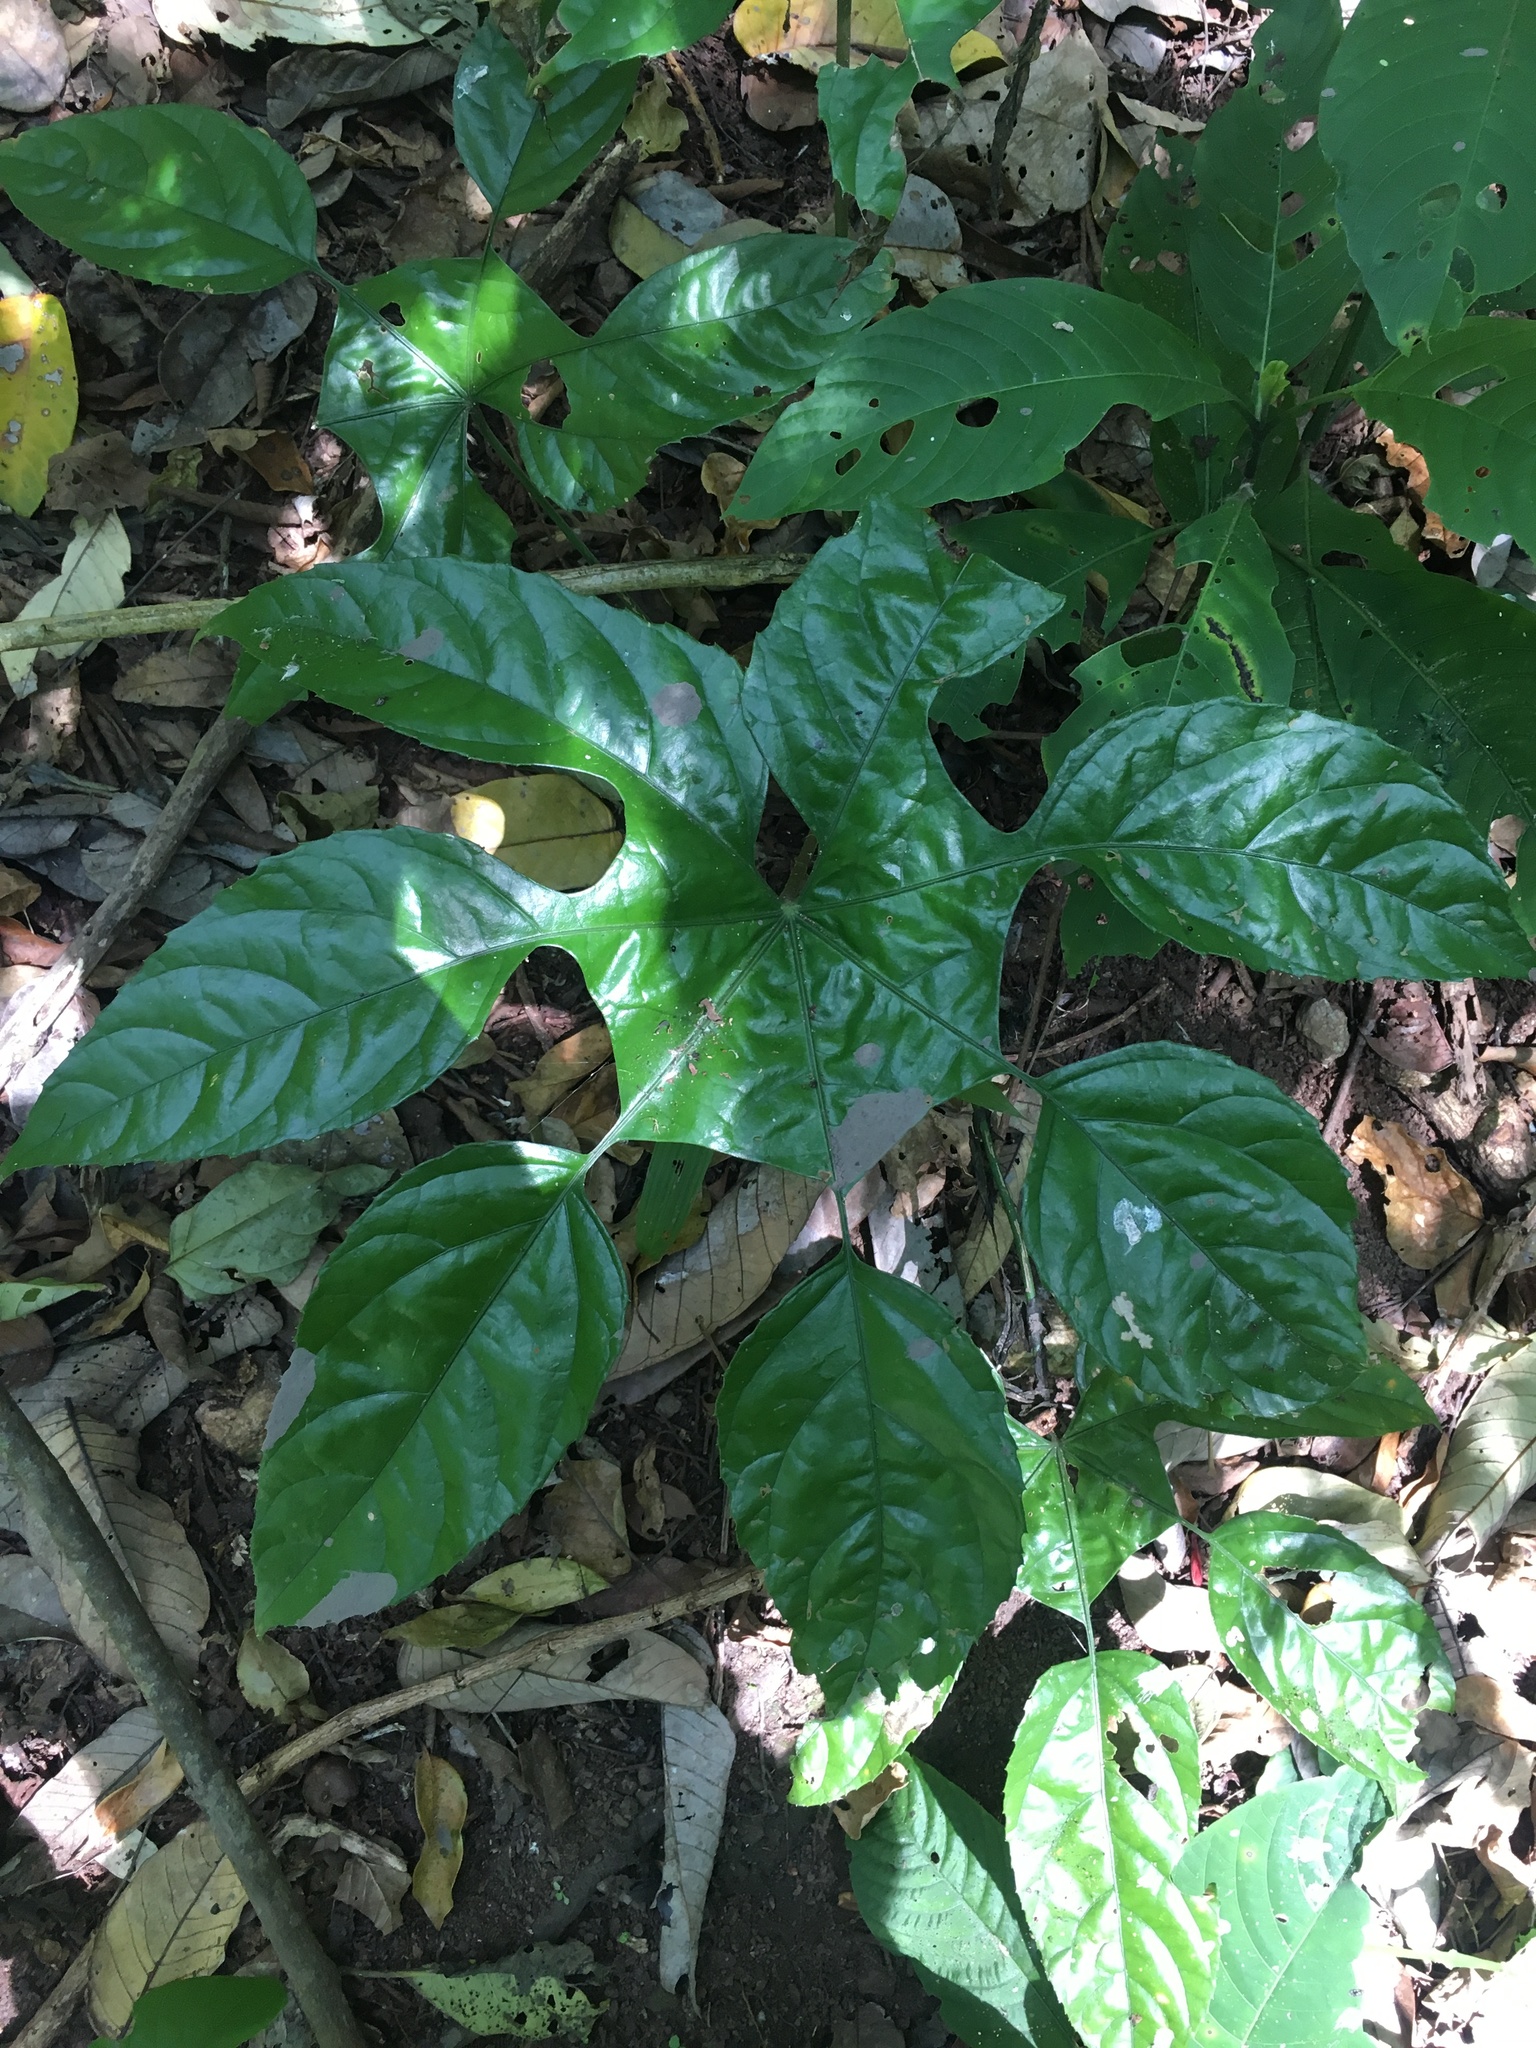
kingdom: Plantae
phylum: Tracheophyta
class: Magnoliopsida
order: Apiales
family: Araliaceae
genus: Trevesia
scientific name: Trevesia burckii
